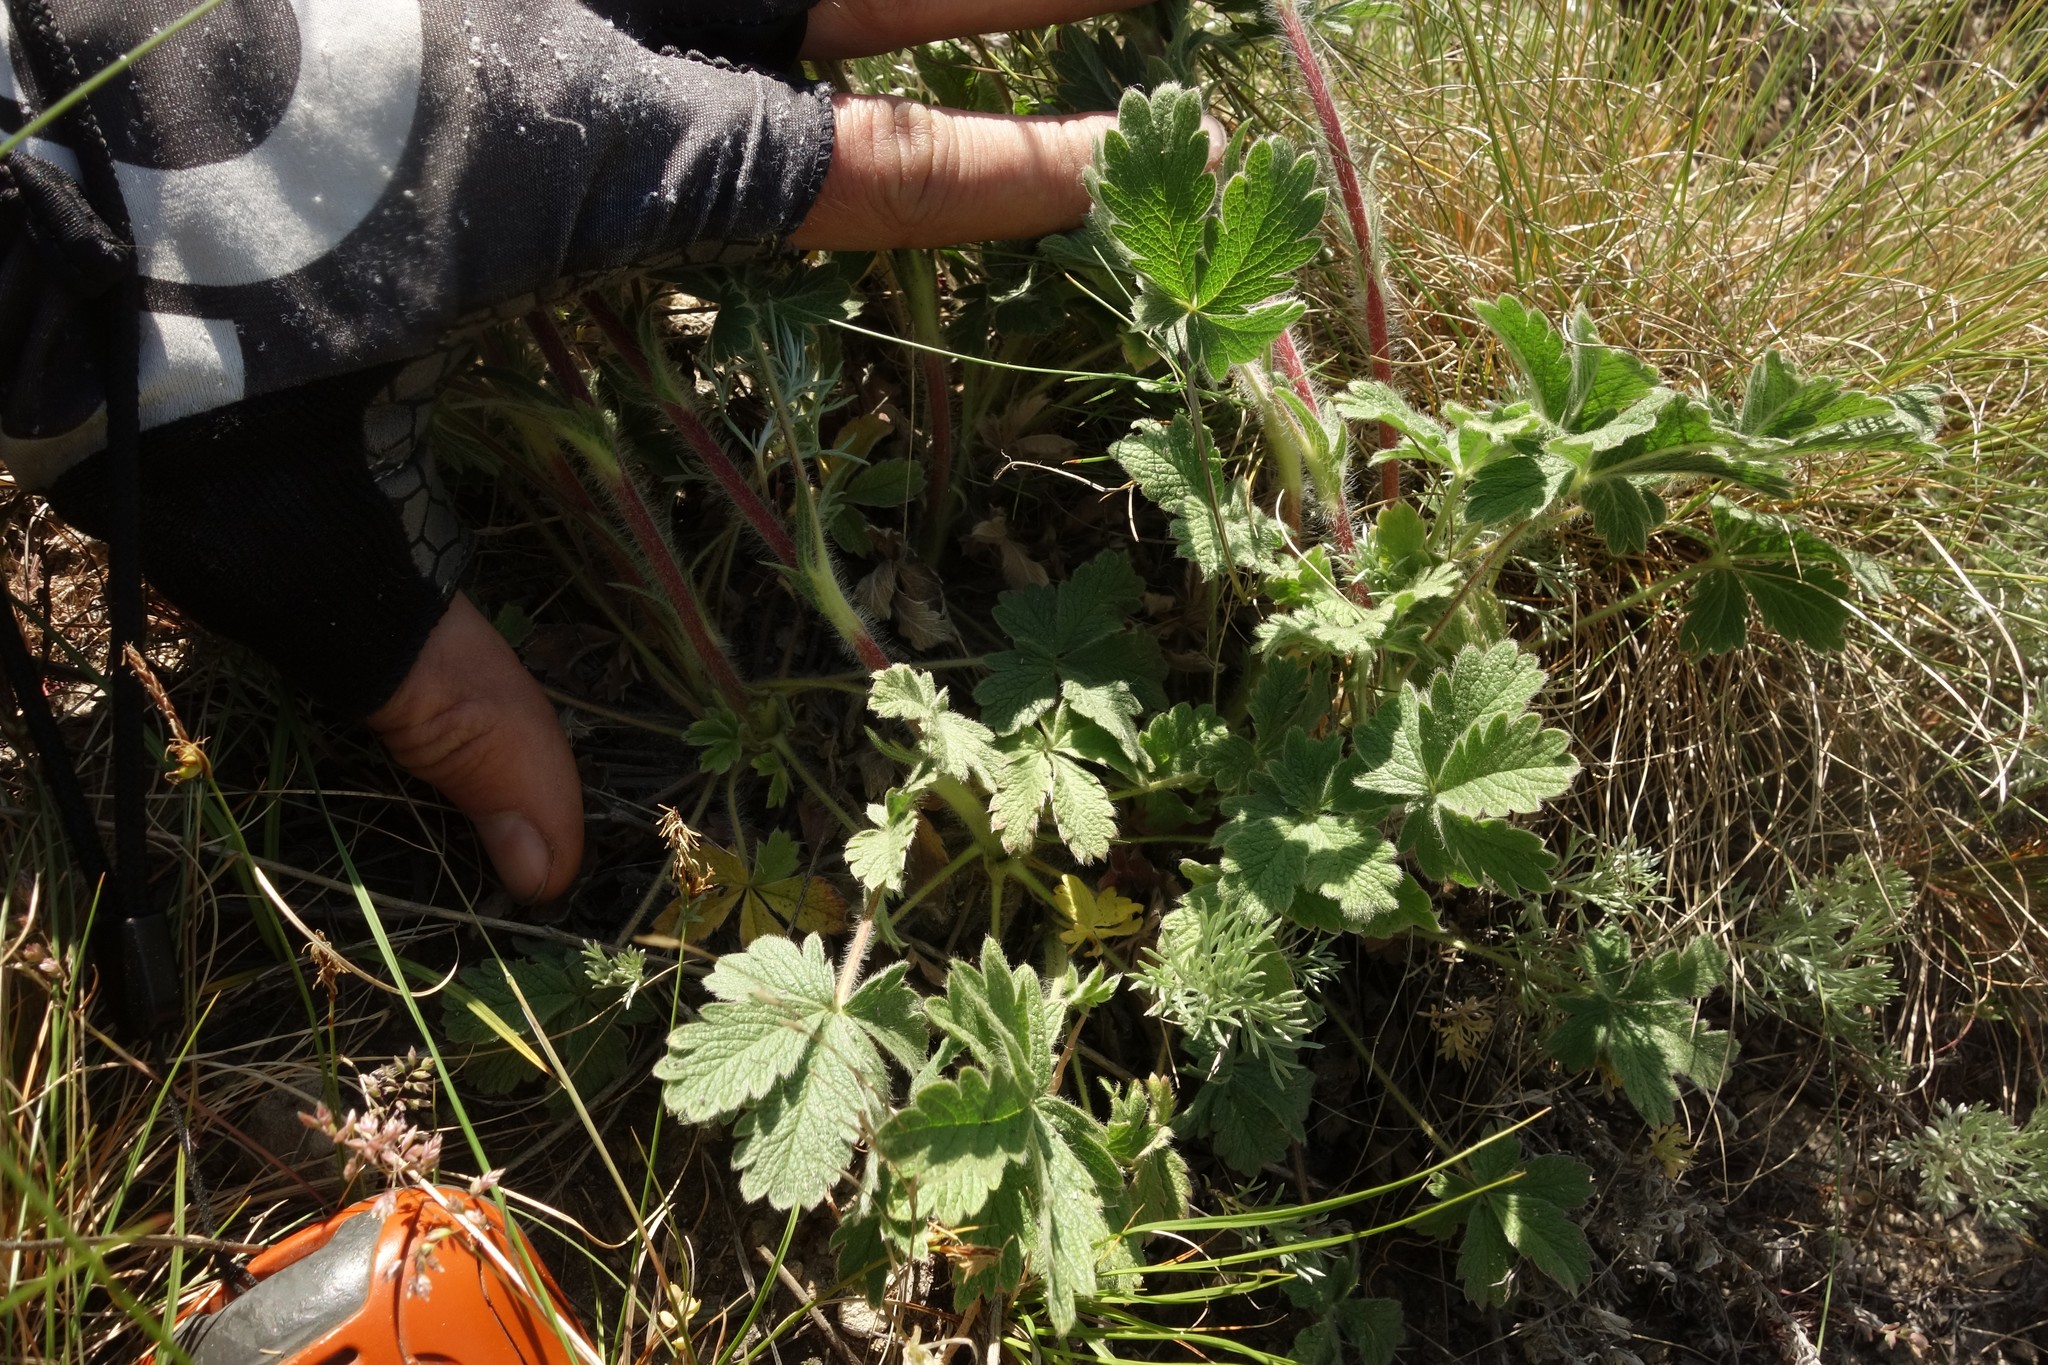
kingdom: Plantae
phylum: Tracheophyta
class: Magnoliopsida
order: Rosales
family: Rosaceae
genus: Potentilla
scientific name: Potentilla astracanica
